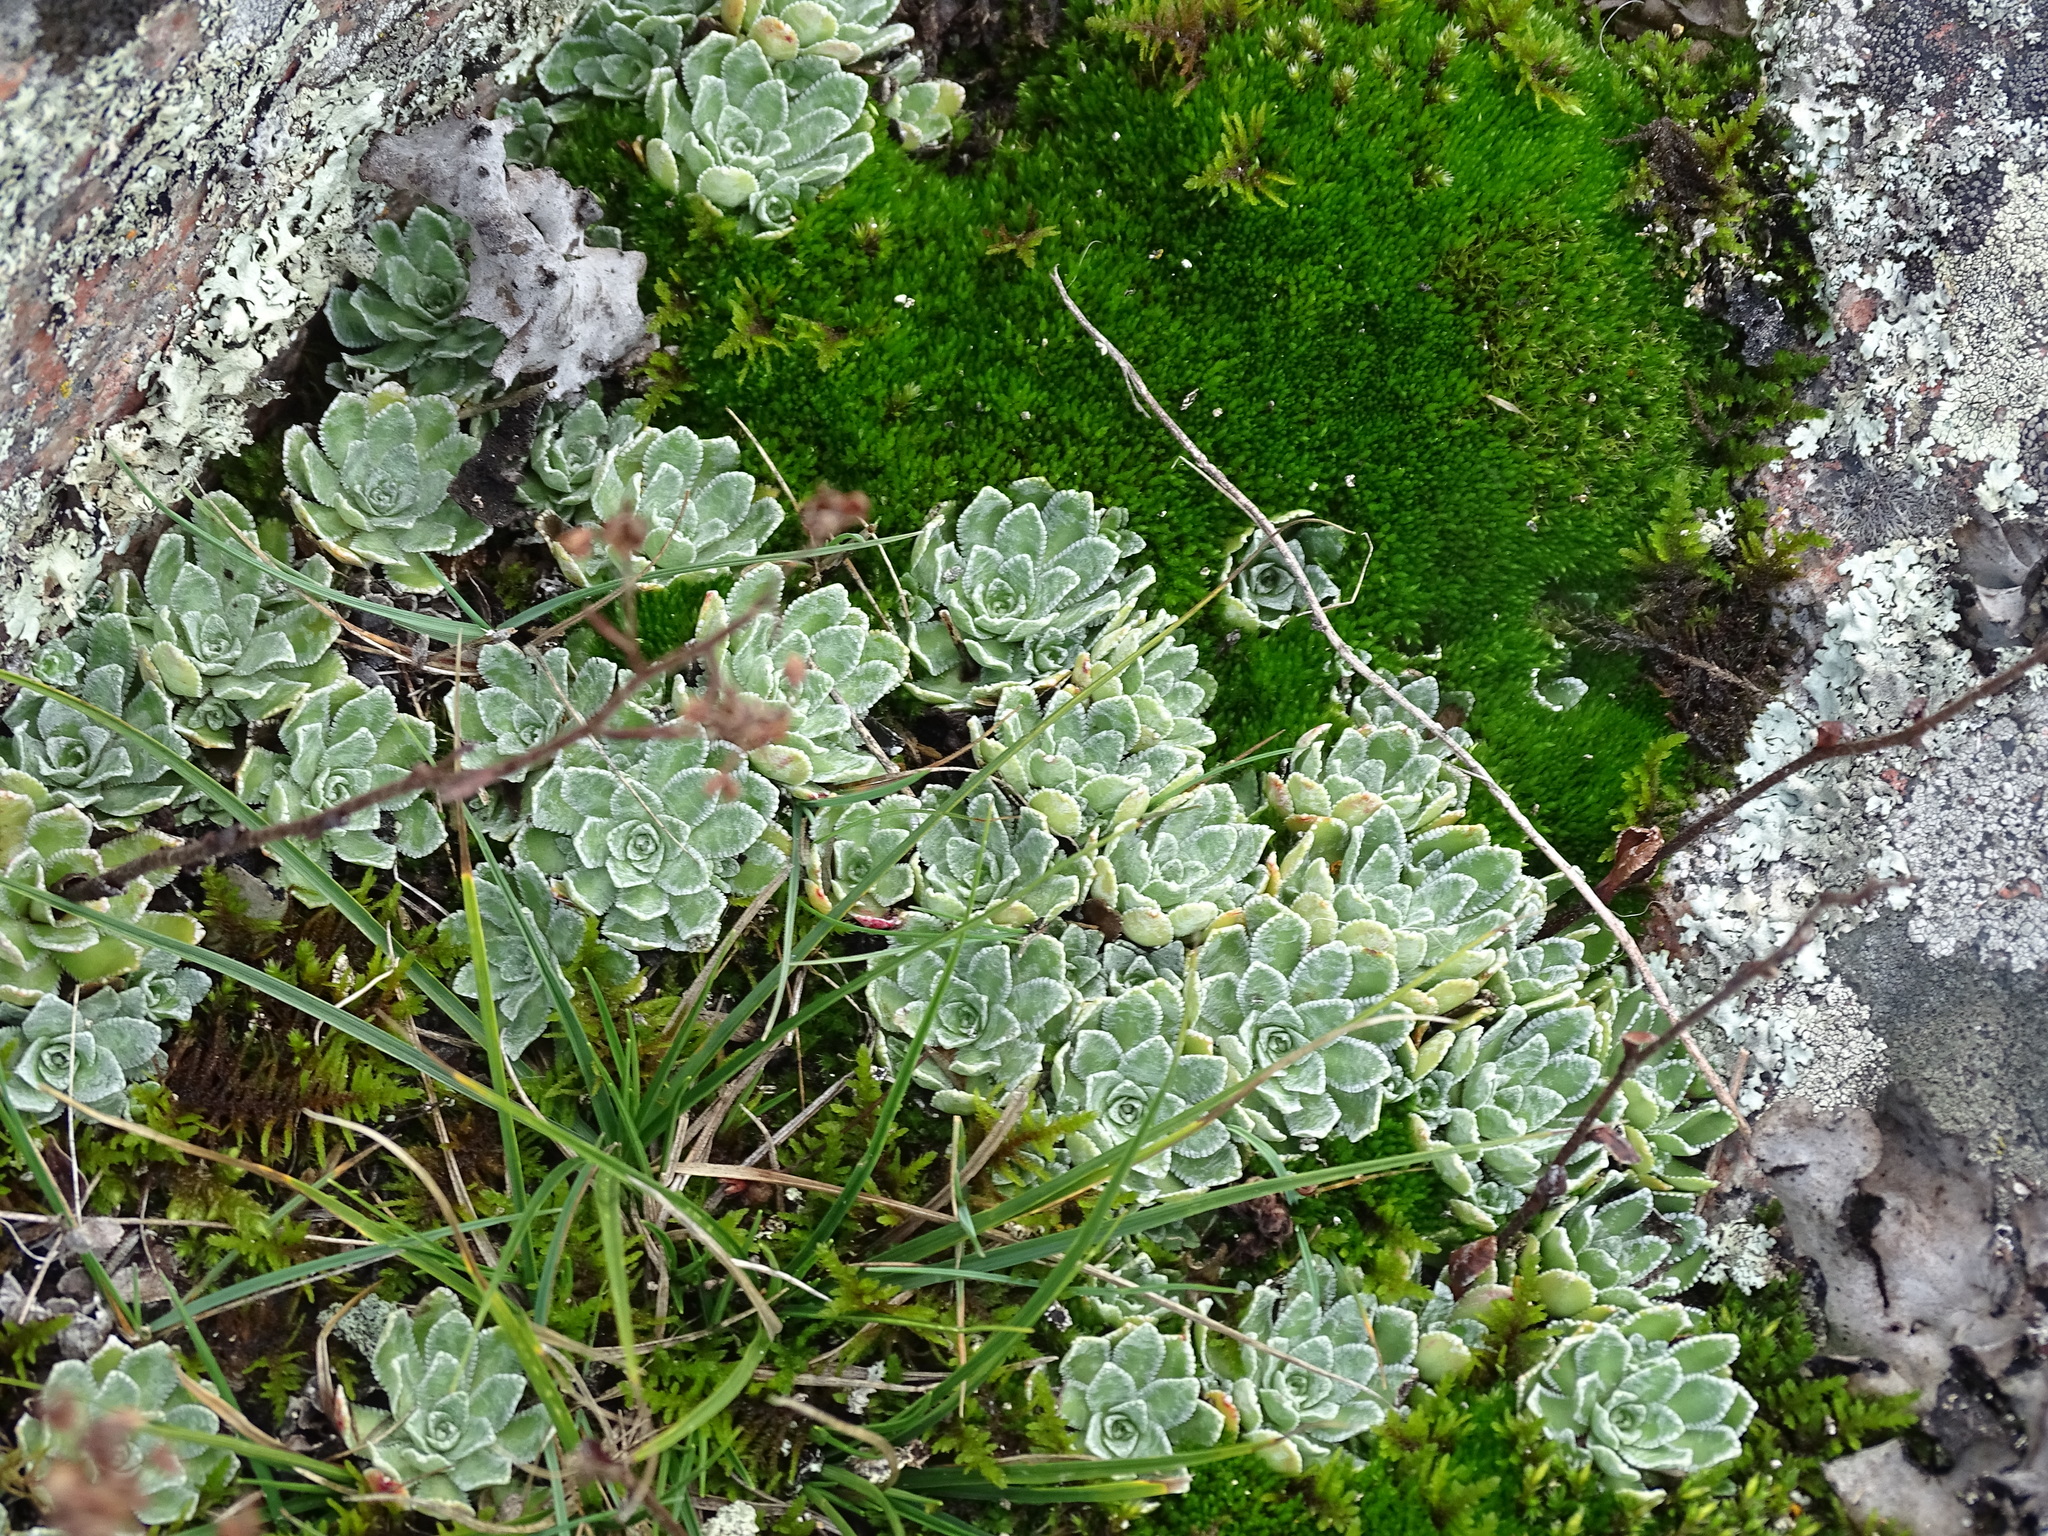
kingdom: Plantae
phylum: Tracheophyta
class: Magnoliopsida
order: Saxifragales
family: Saxifragaceae
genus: Saxifraga
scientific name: Saxifraga paniculata
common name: Livelong saxifrage
